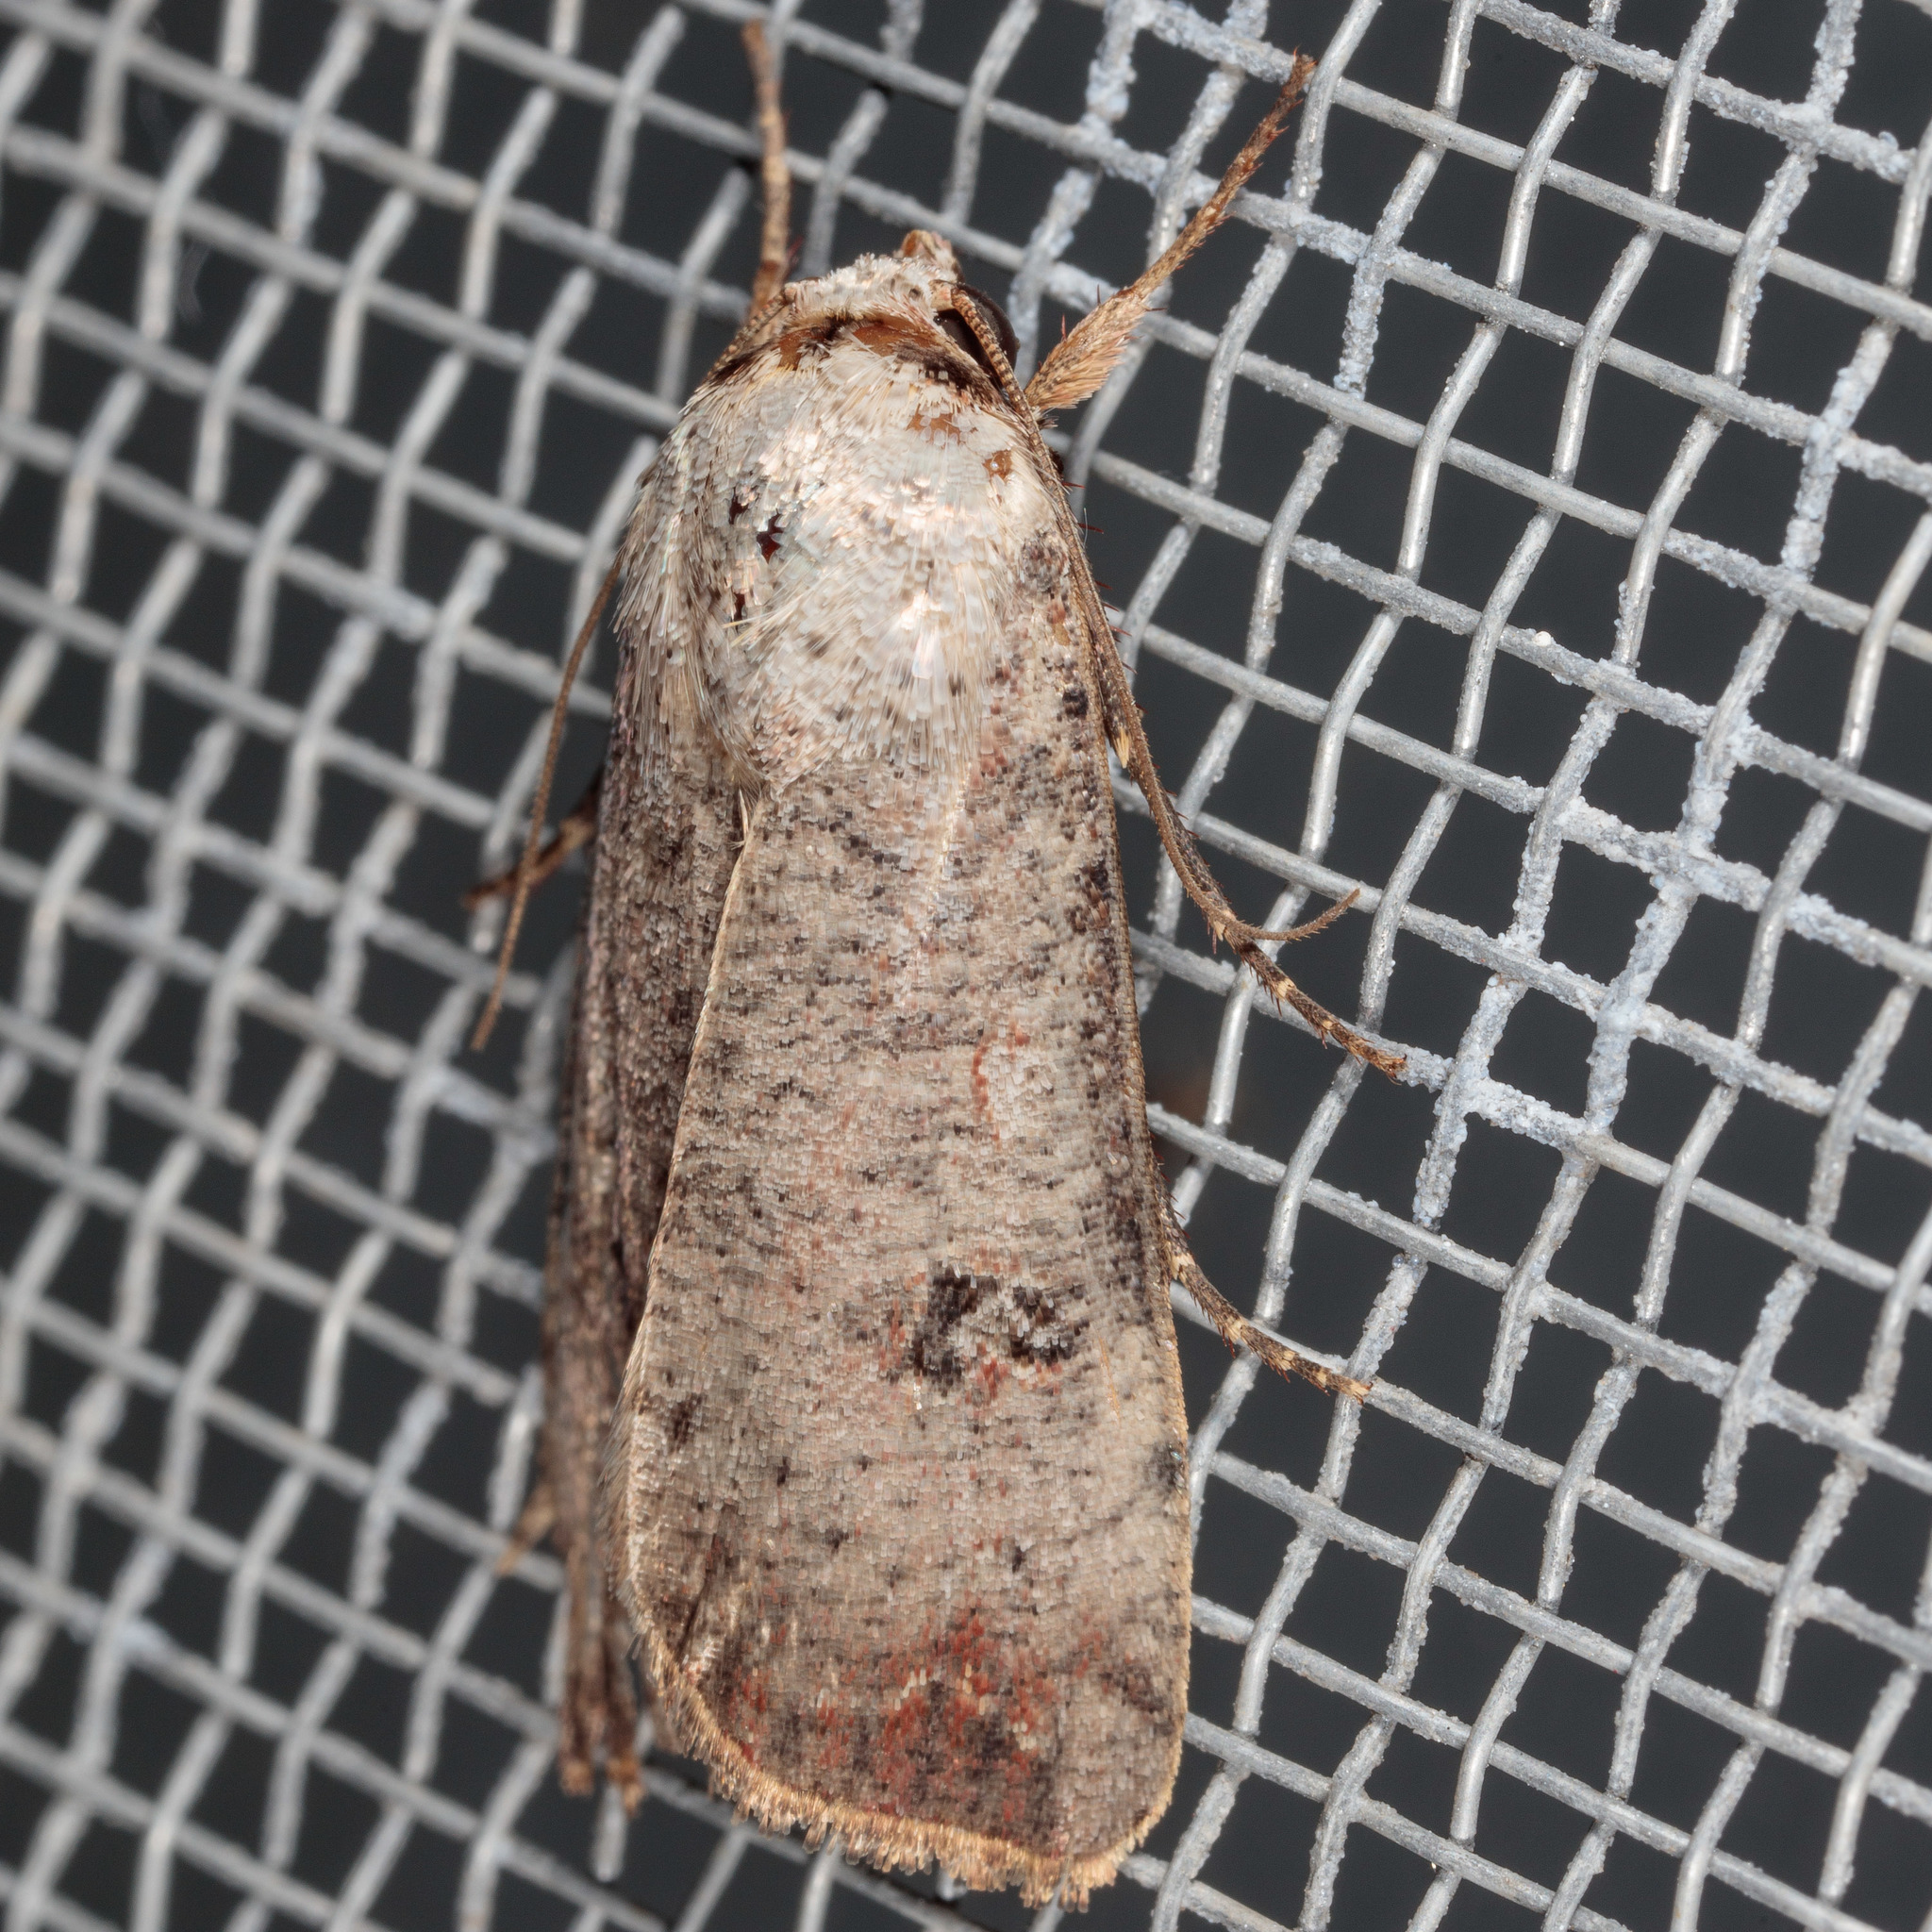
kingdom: Animalia
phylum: Arthropoda
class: Insecta
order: Lepidoptera
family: Noctuidae
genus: Anicla
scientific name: Anicla infecta
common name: Green cutworm
